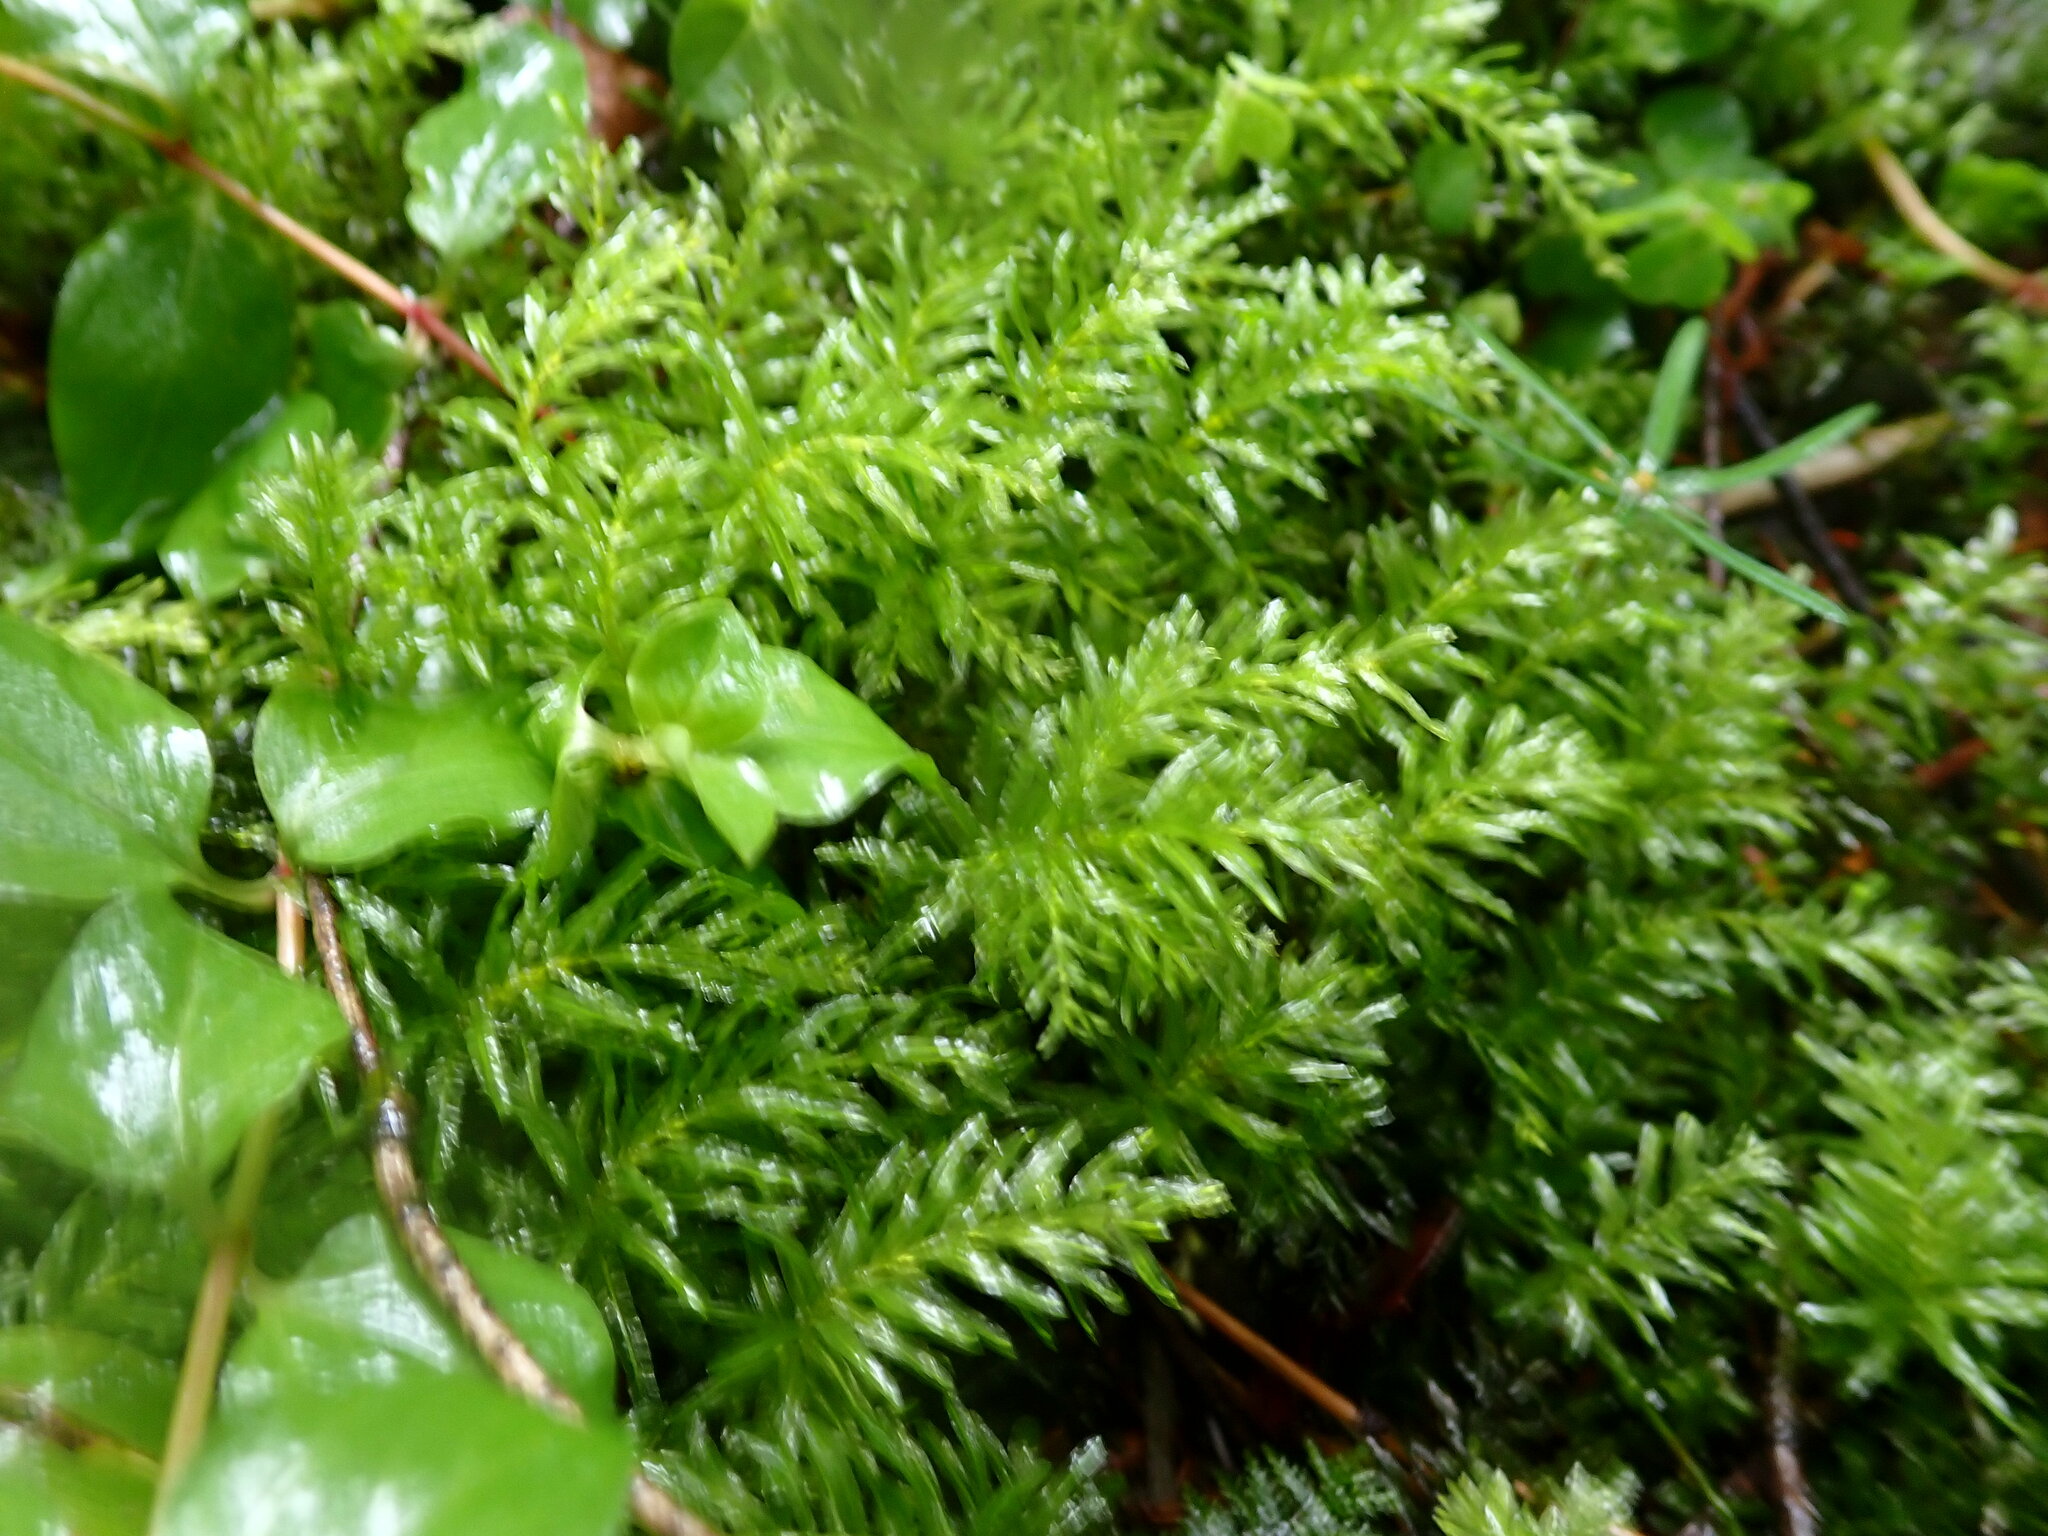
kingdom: Plantae
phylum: Bryophyta
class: Bryopsida
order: Bryales
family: Mniaceae
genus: Plagiomnium
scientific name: Plagiomnium undulatum
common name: Hart's-tongue thyme-moss
